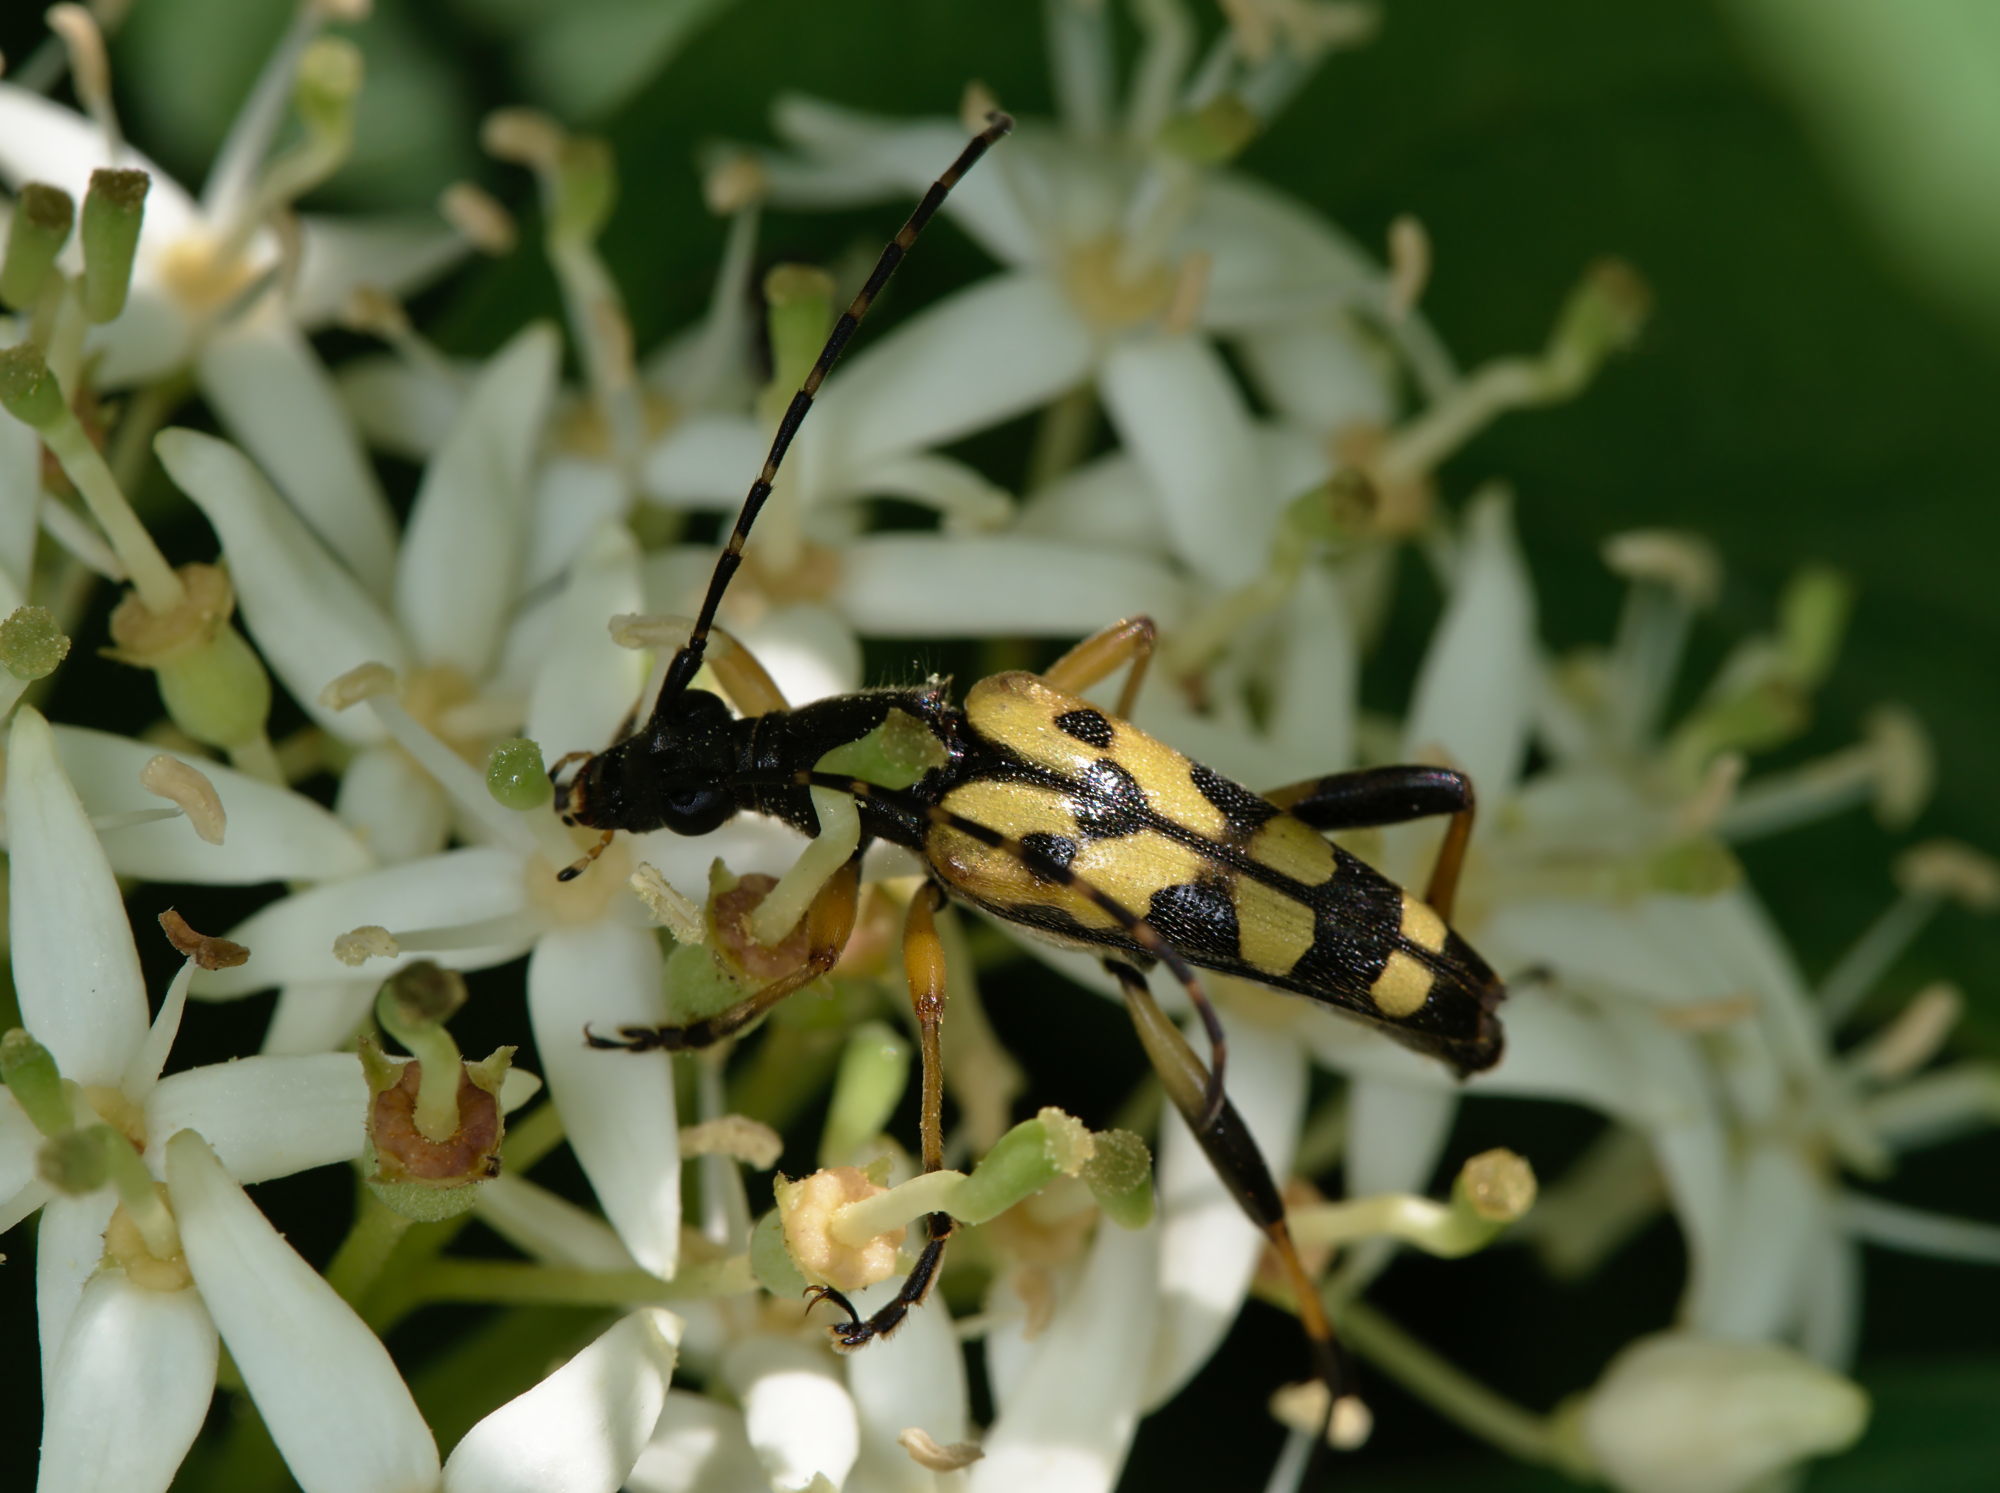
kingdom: Animalia
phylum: Arthropoda
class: Insecta
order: Coleoptera
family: Cerambycidae
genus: Rutpela
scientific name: Rutpela maculata
